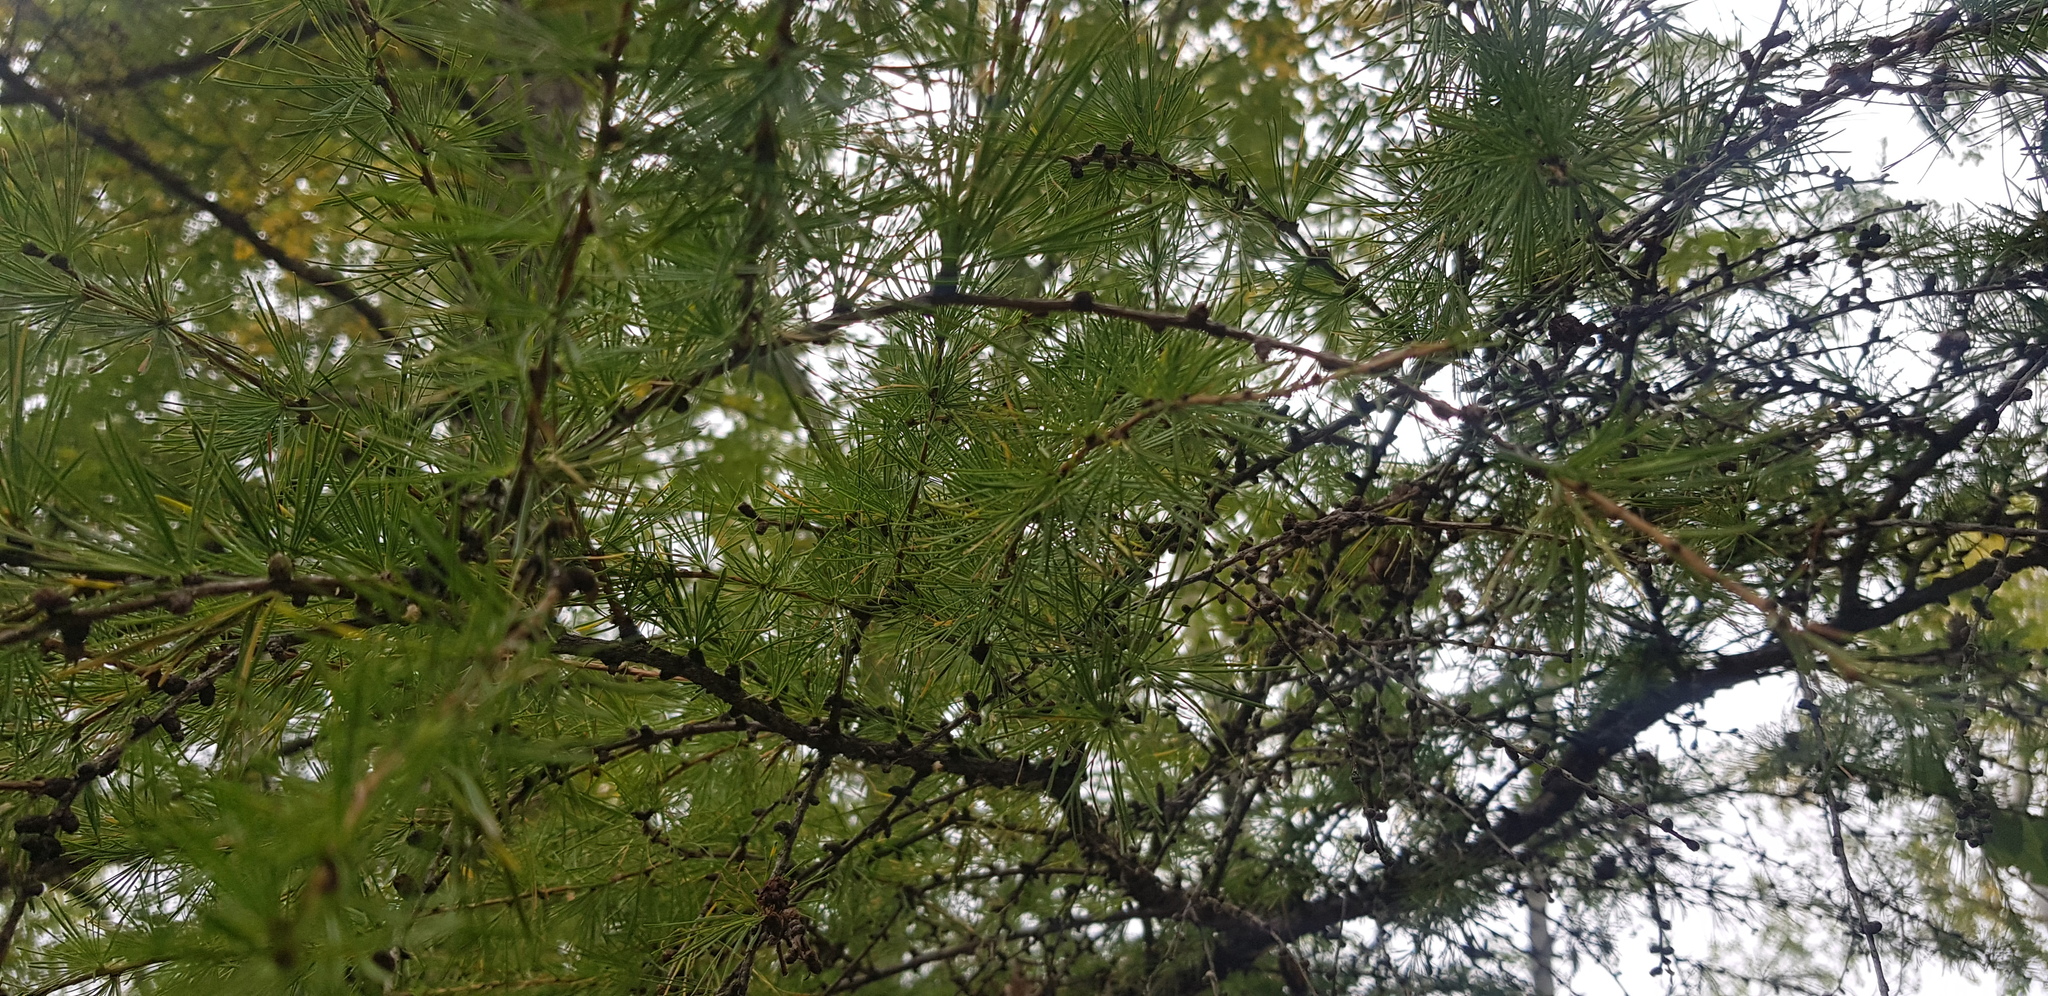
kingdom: Plantae
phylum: Tracheophyta
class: Pinopsida
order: Pinales
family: Pinaceae
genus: Larix
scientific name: Larix gmelinii
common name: Dahurian larch
